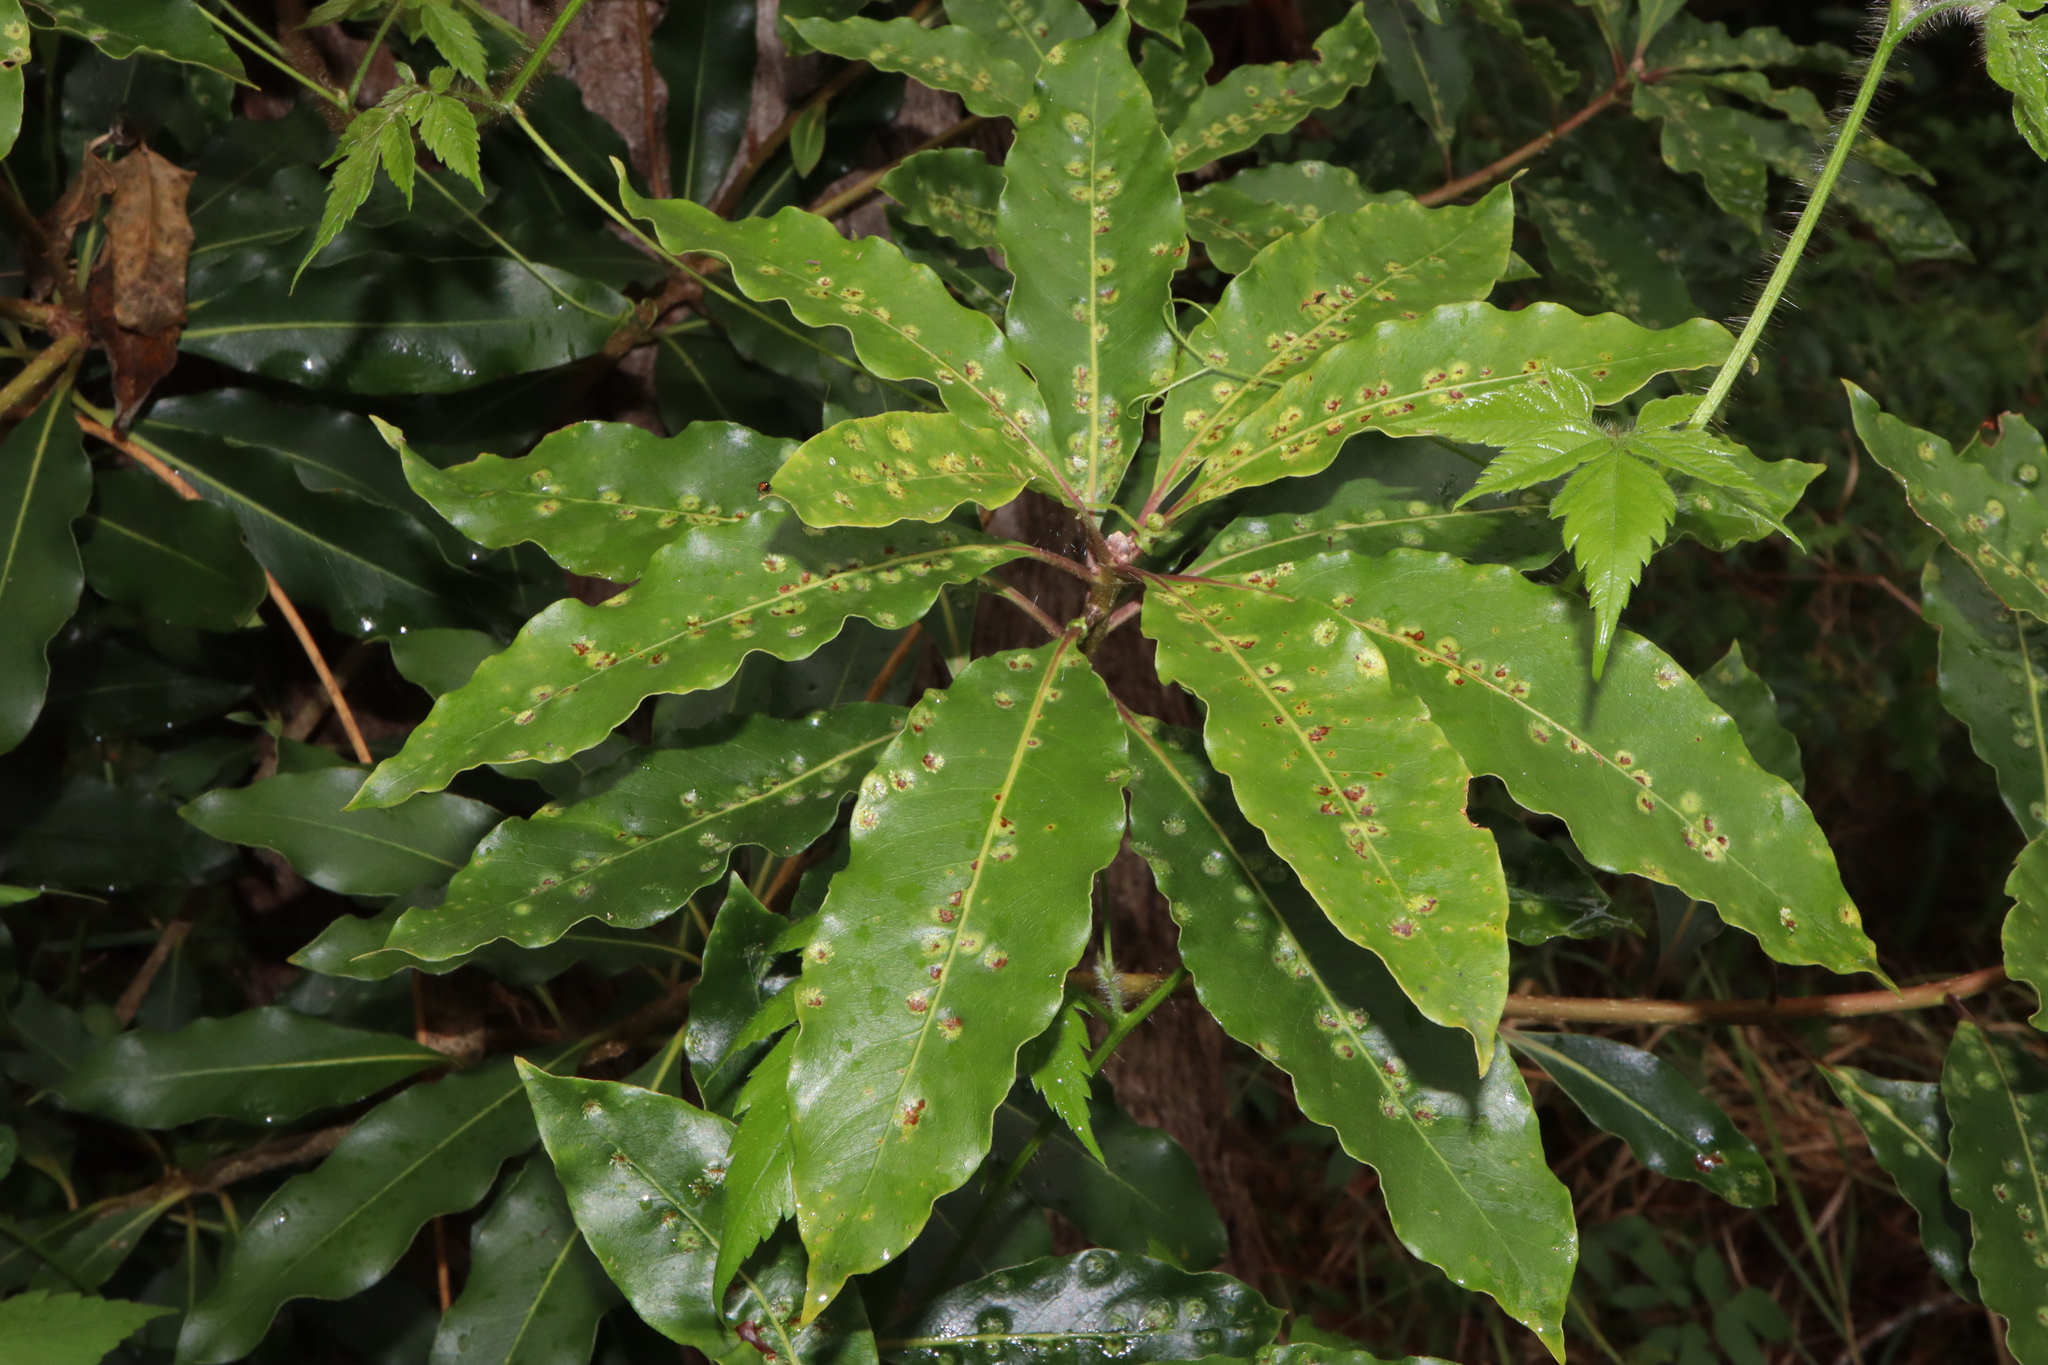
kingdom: Animalia
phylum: Arthropoda
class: Insecta
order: Diptera
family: Agromyzidae
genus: Phytoliriomyza
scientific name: Phytoliriomyza pittosporophylli
